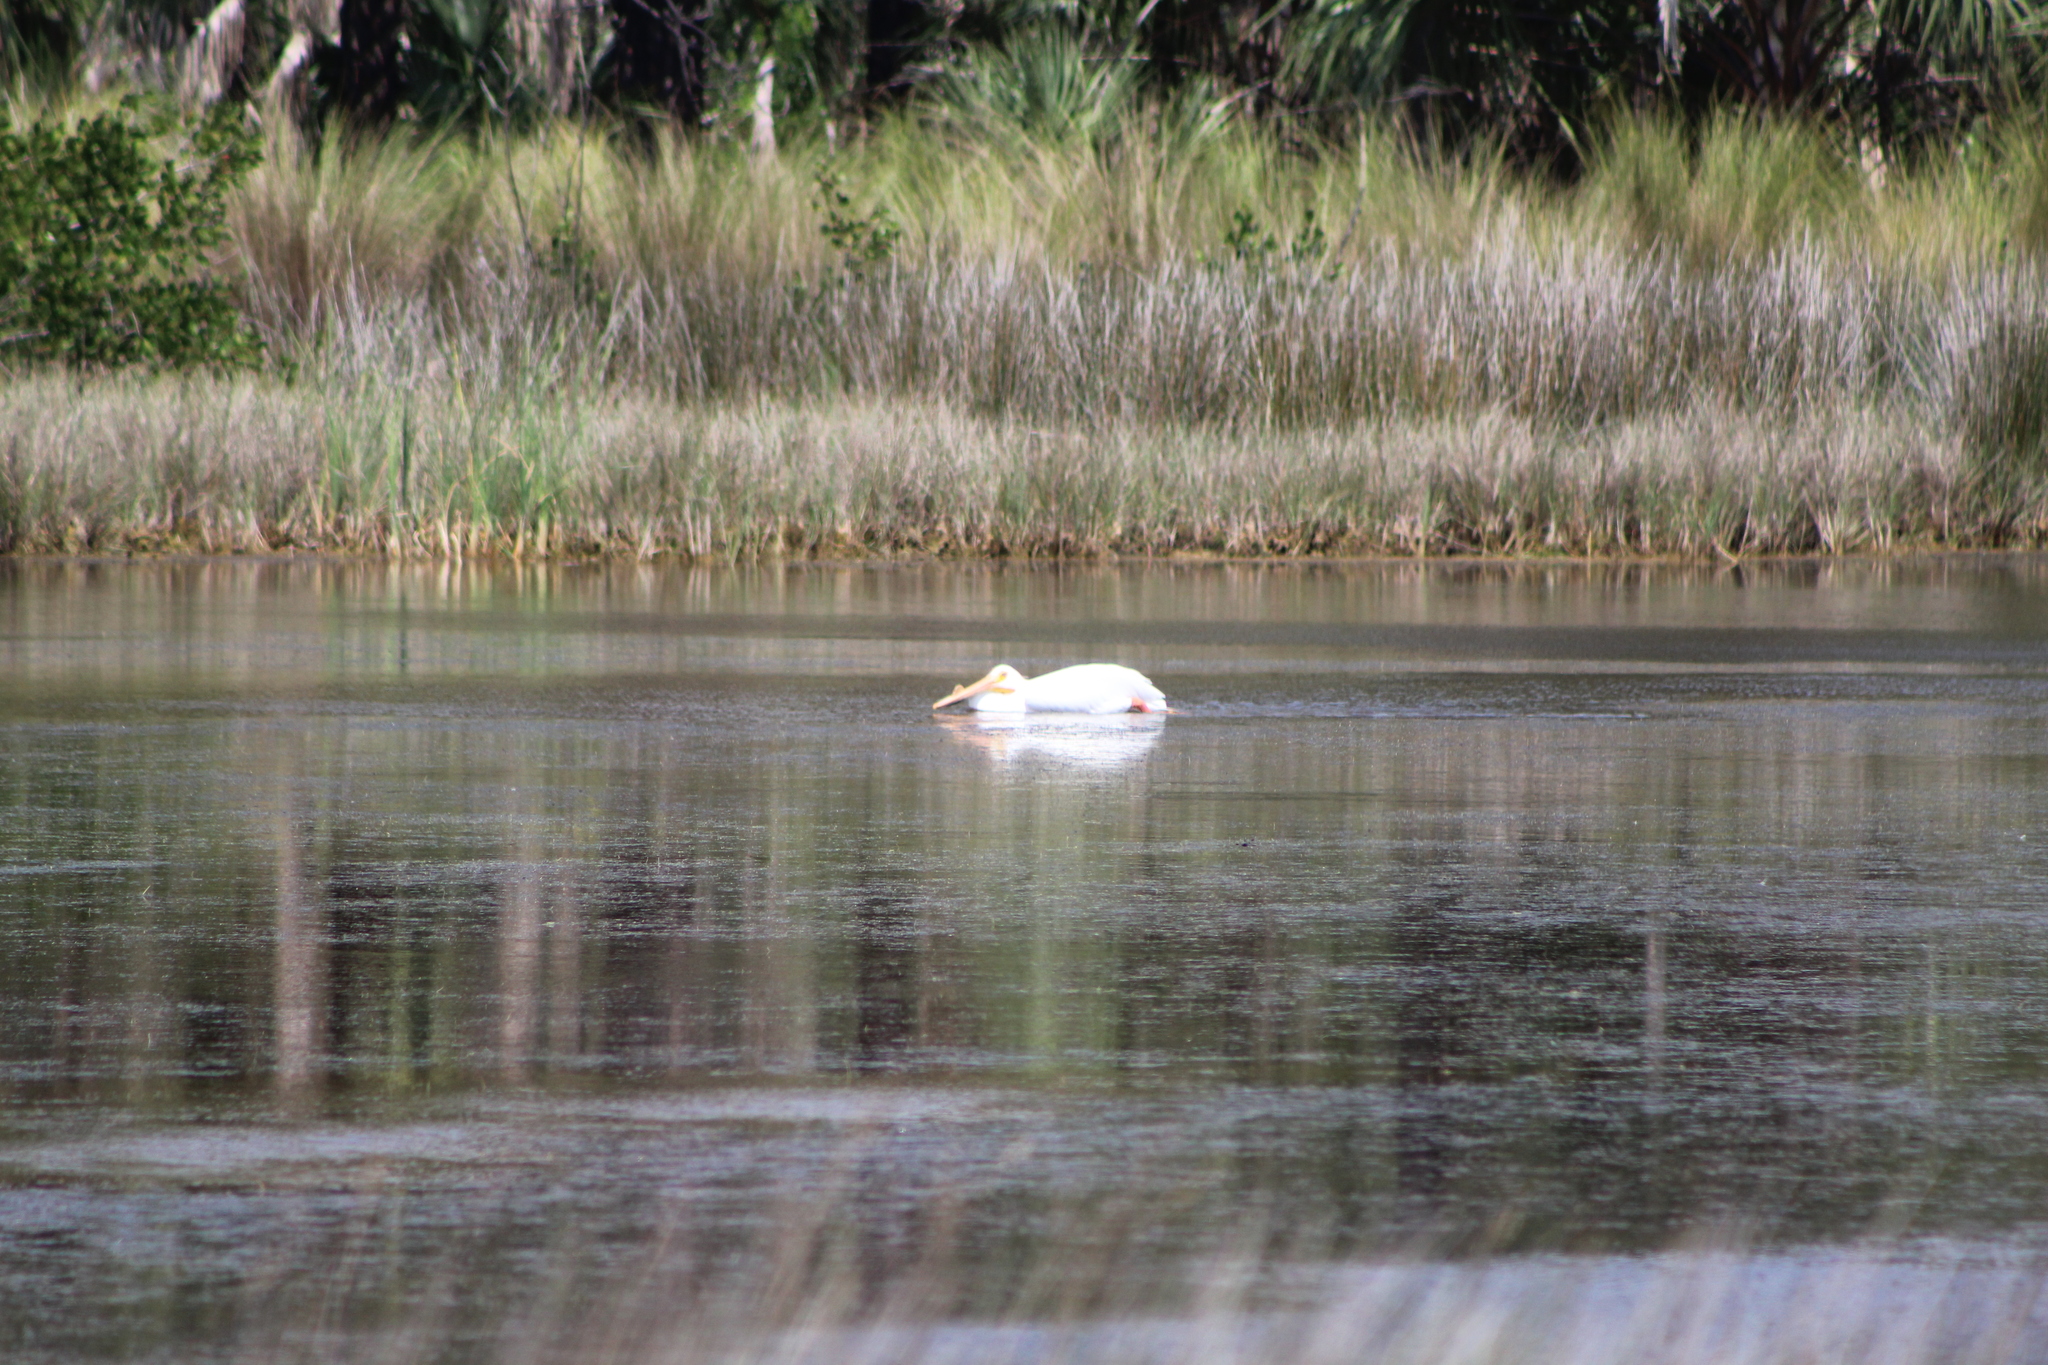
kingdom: Animalia
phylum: Chordata
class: Aves
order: Pelecaniformes
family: Pelecanidae
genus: Pelecanus
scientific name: Pelecanus erythrorhynchos
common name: American white pelican
